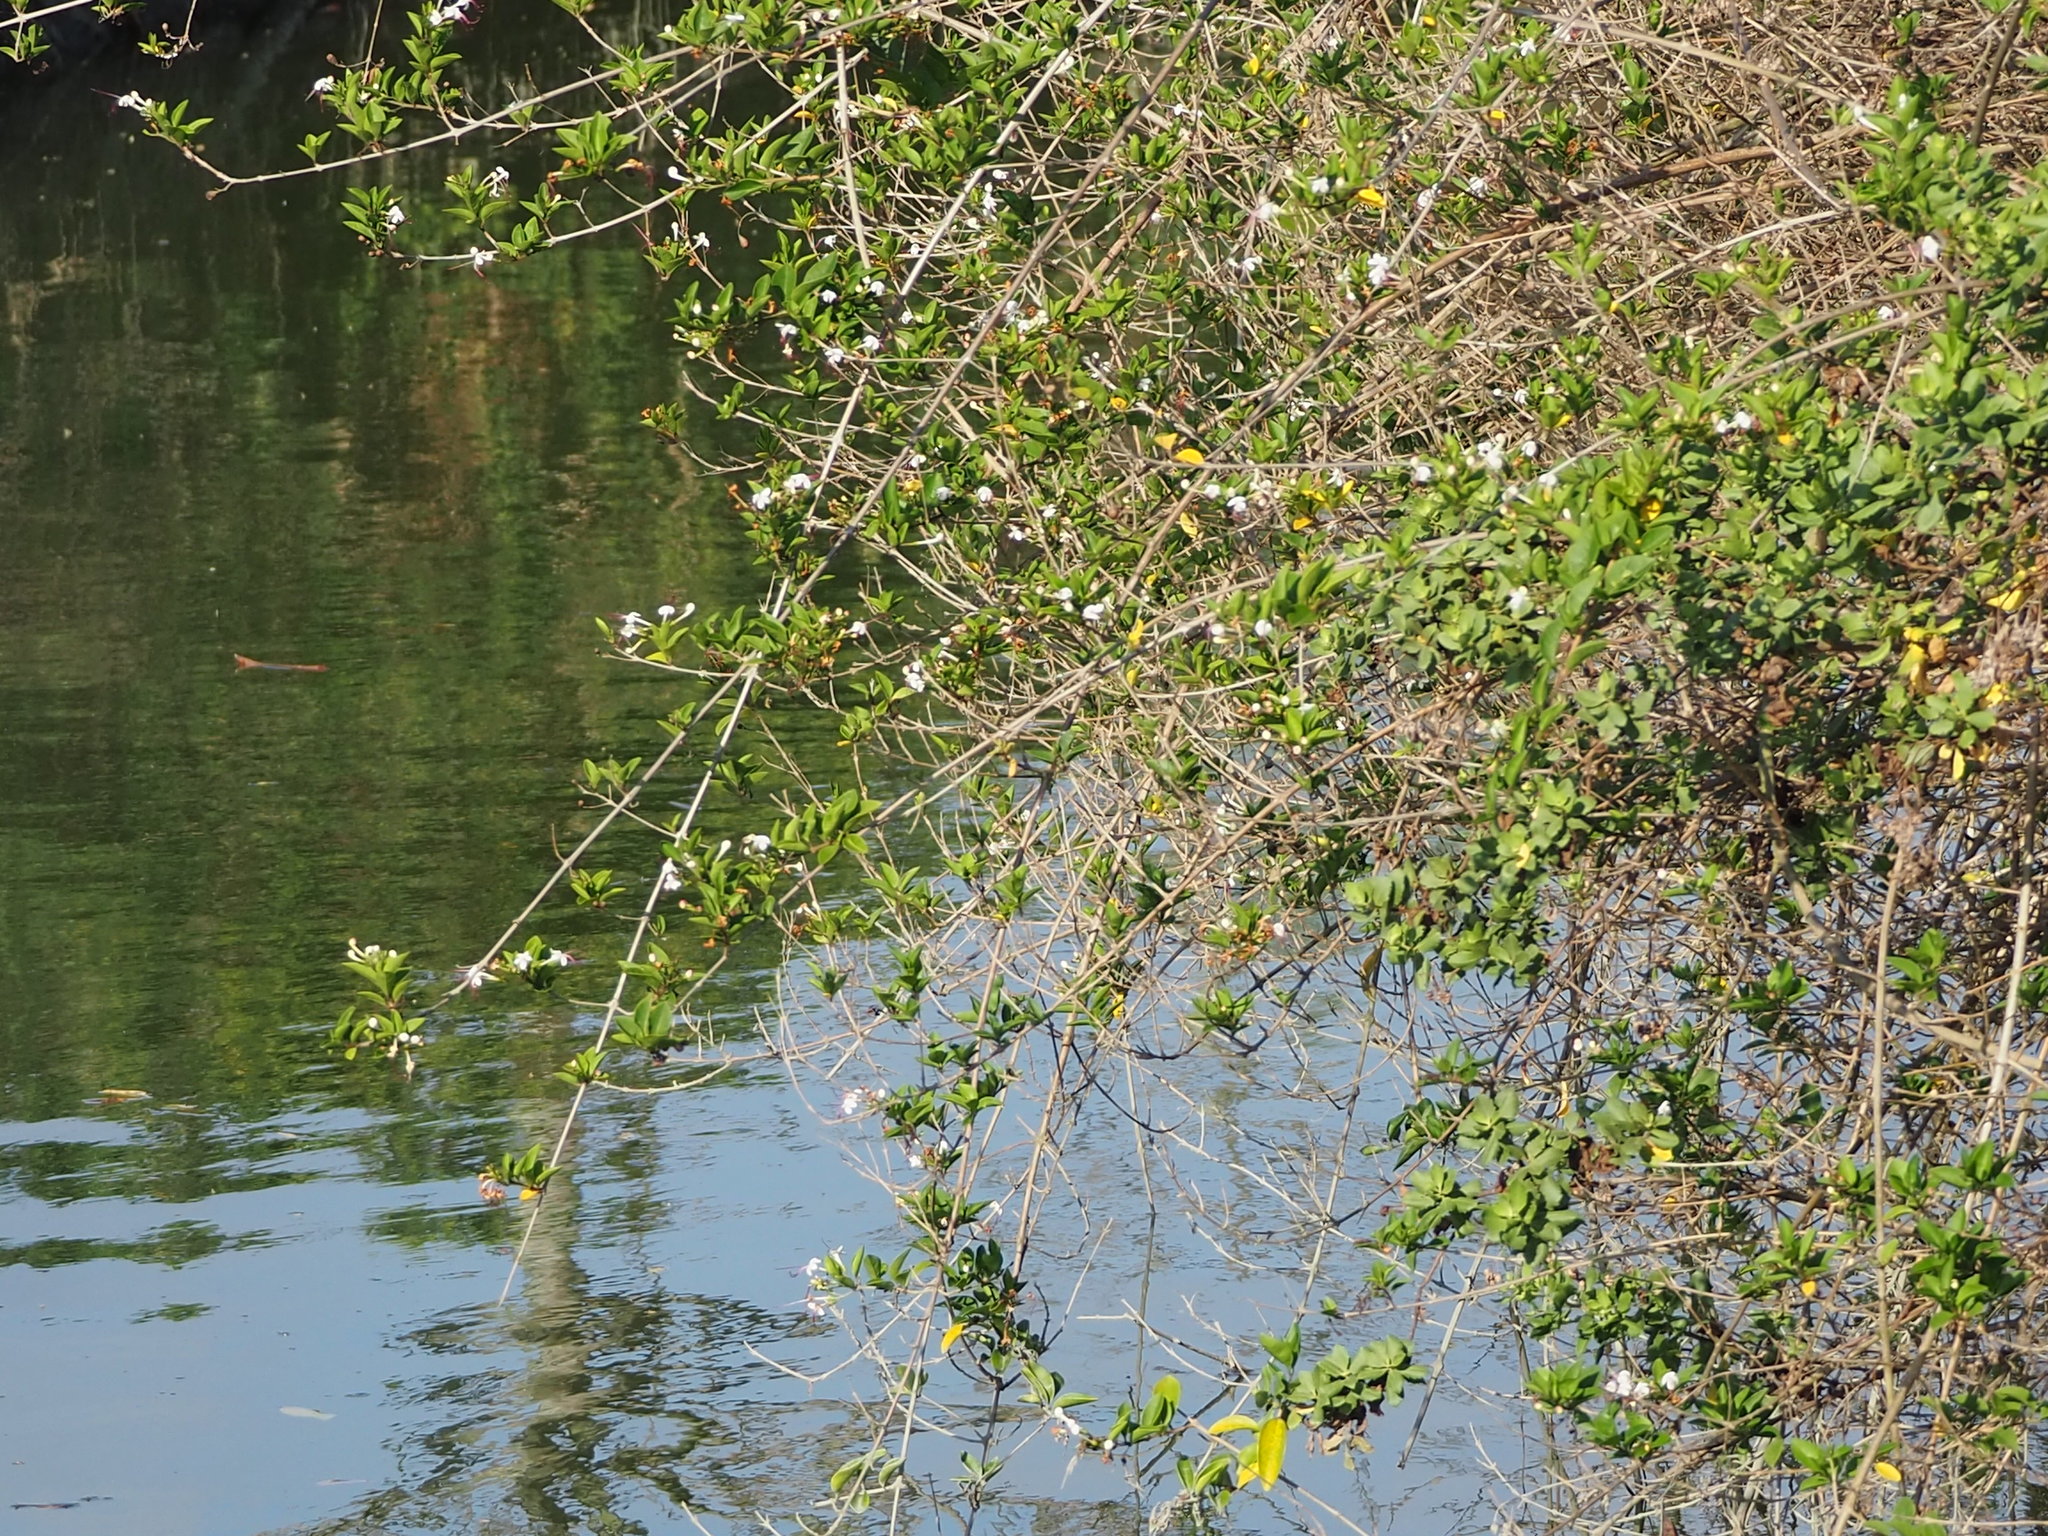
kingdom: Plantae
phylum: Tracheophyta
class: Magnoliopsida
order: Lamiales
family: Lamiaceae
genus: Volkameria
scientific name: Volkameria inermis
